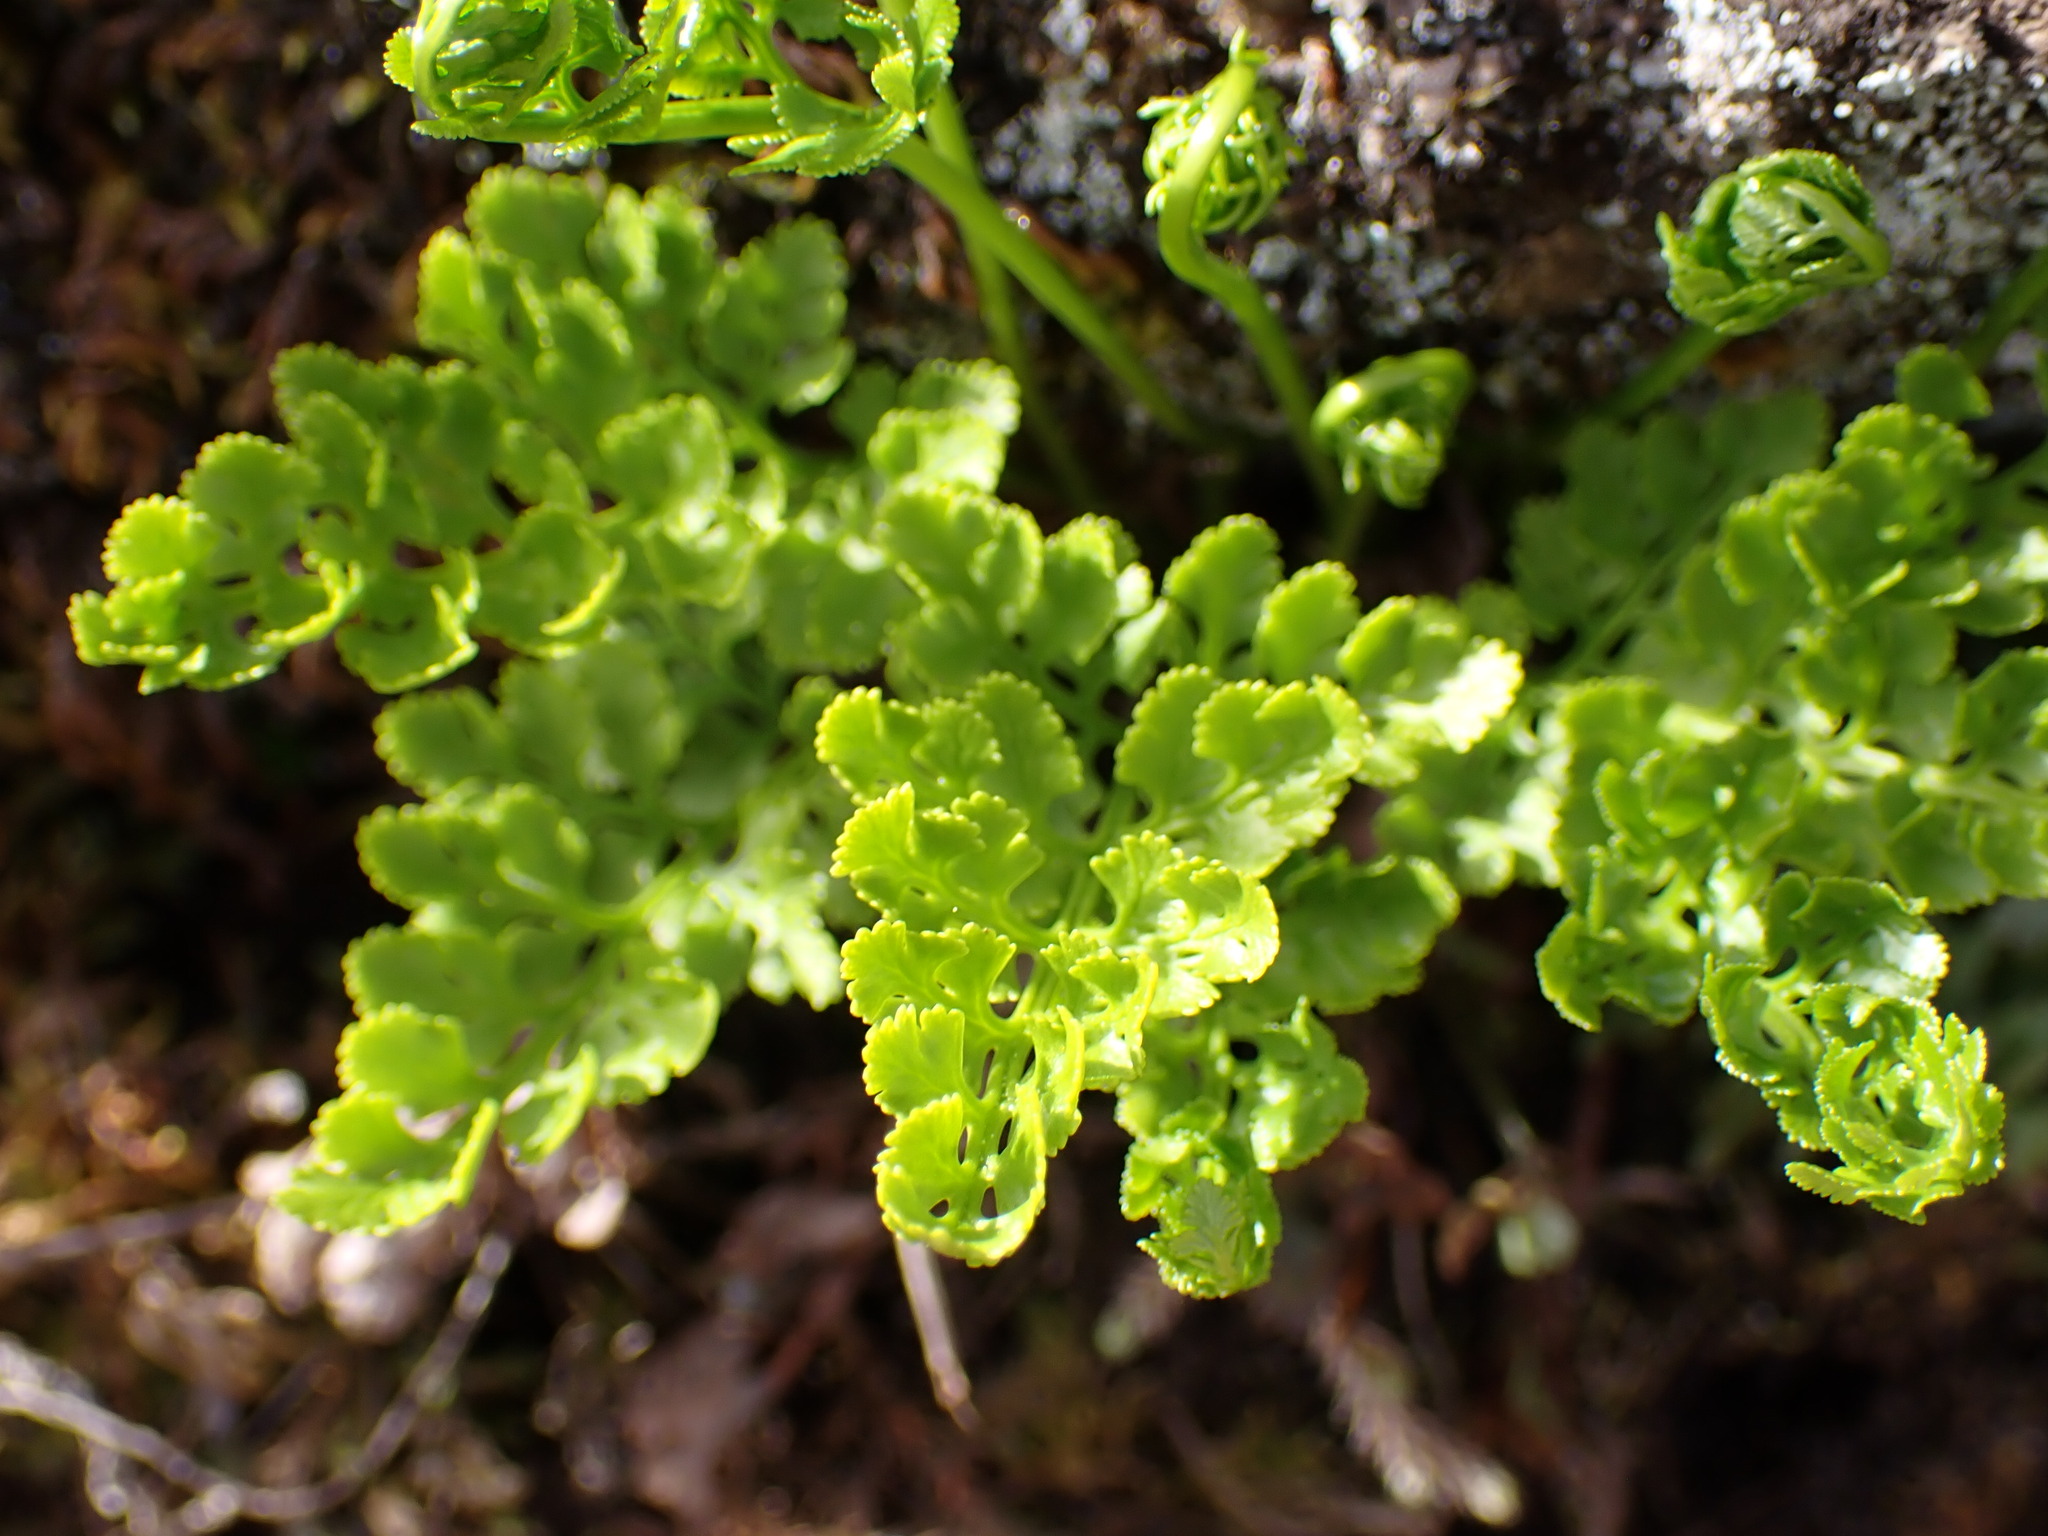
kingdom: Plantae
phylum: Tracheophyta
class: Polypodiopsida
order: Polypodiales
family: Pteridaceae
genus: Cryptogramma
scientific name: Cryptogramma acrostichoides
